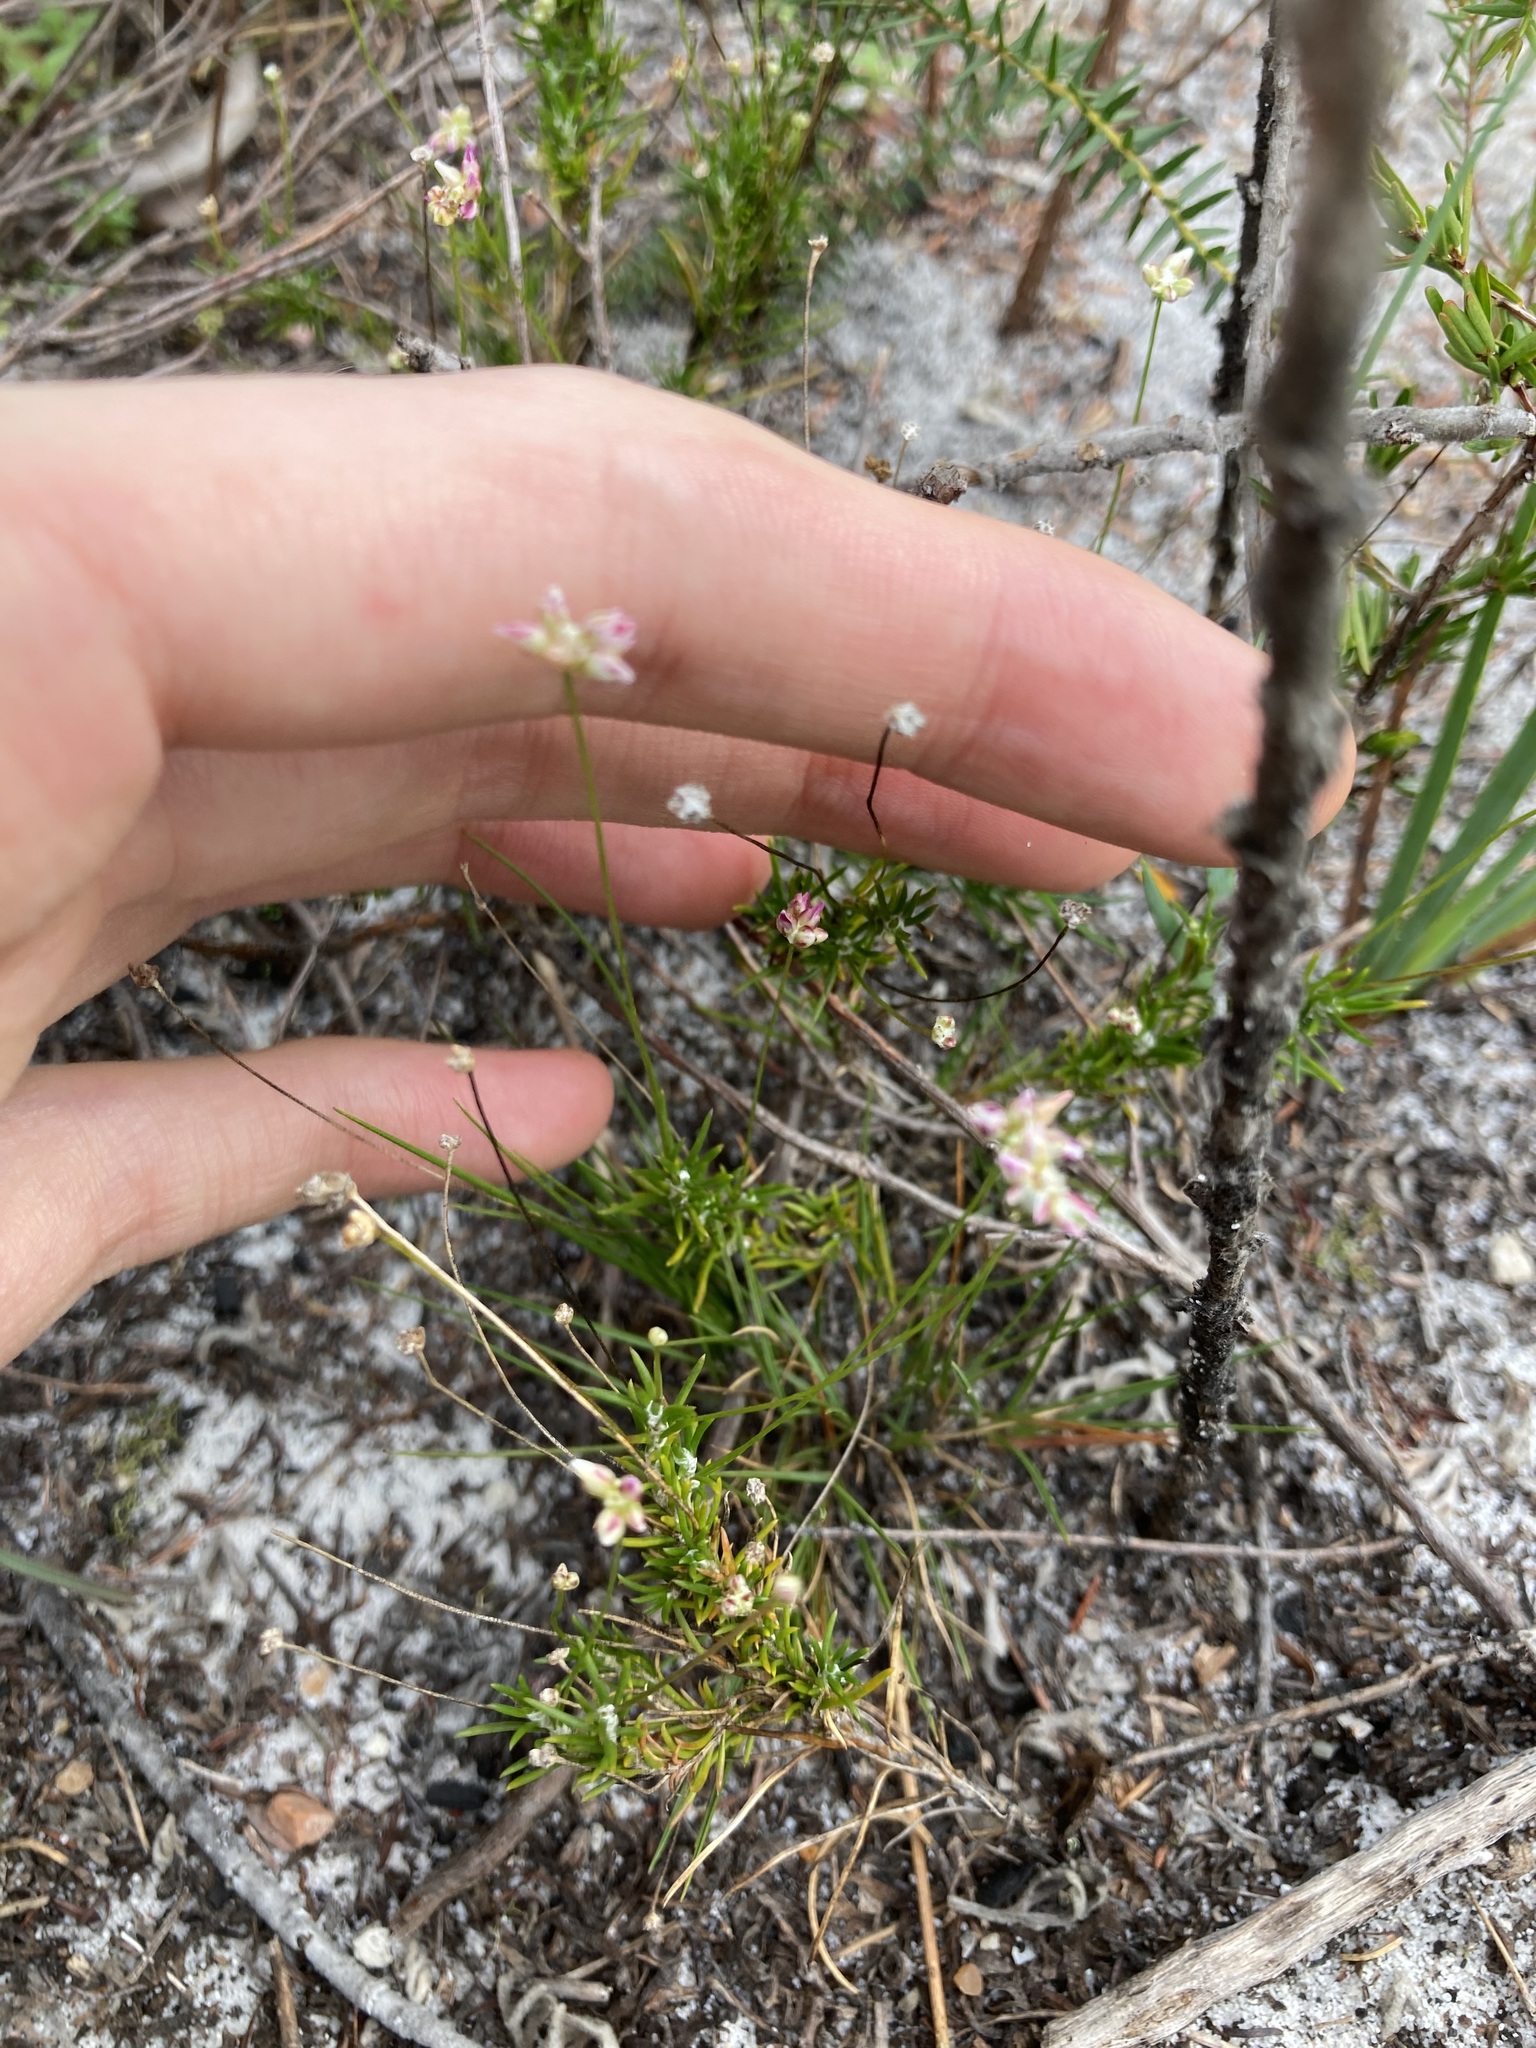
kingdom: Plantae
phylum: Tracheophyta
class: Liliopsida
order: Asparagales
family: Asparagaceae
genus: Laxmannia
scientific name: Laxmannia gracilis
